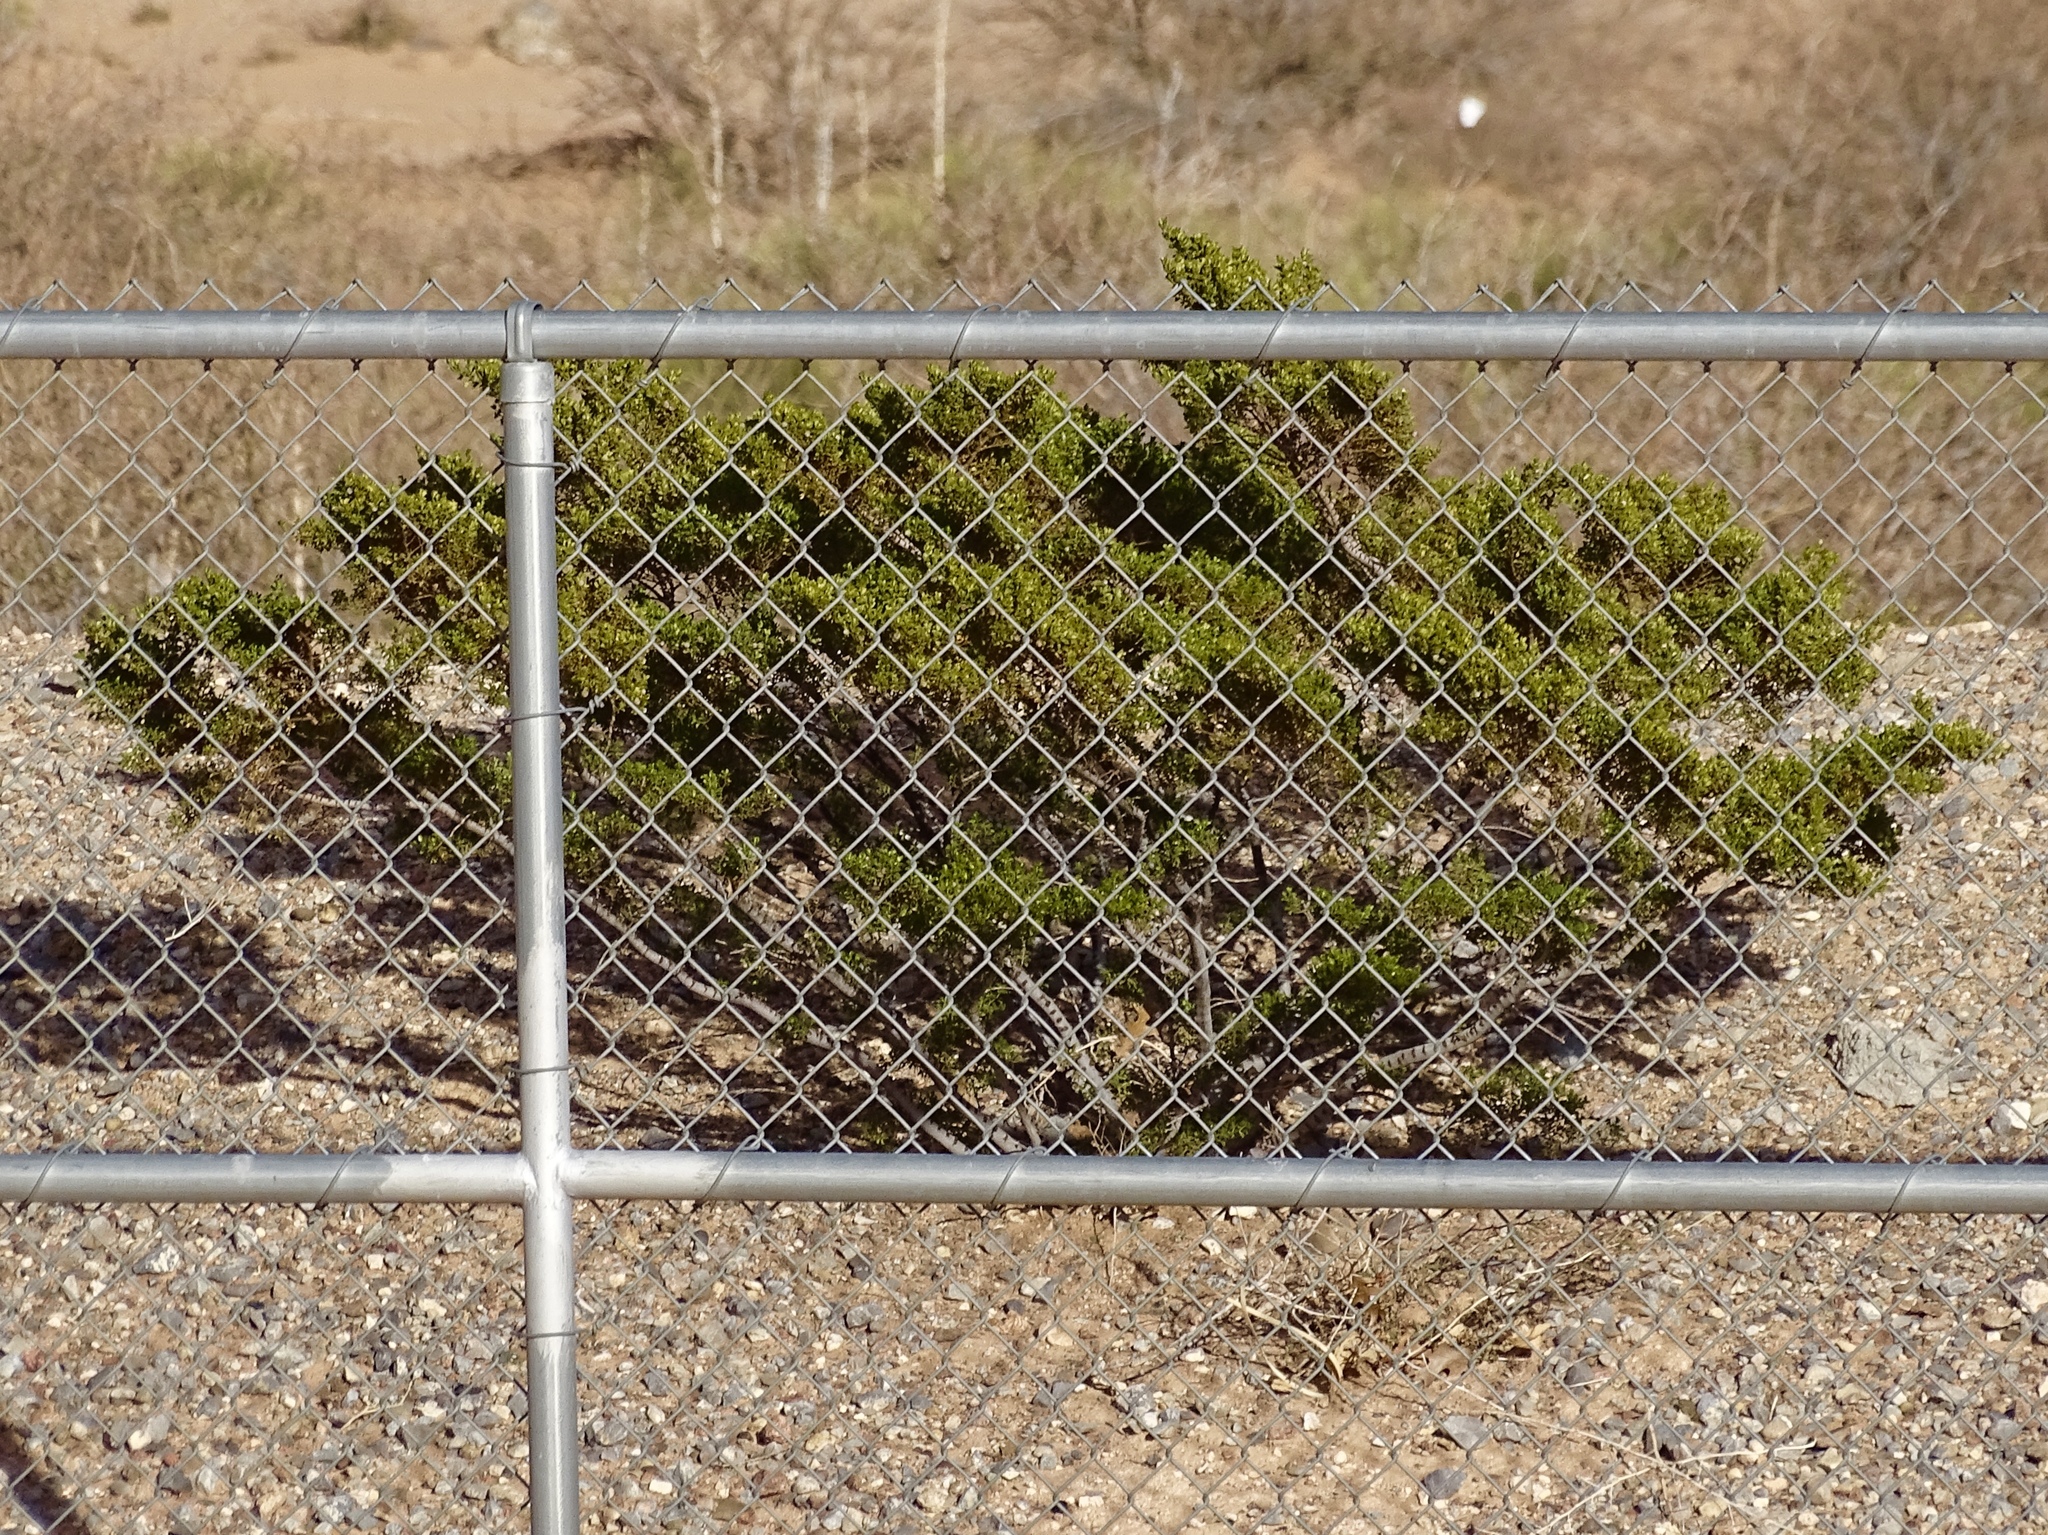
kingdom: Plantae
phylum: Tracheophyta
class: Magnoliopsida
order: Zygophyllales
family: Zygophyllaceae
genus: Larrea
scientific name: Larrea tridentata
